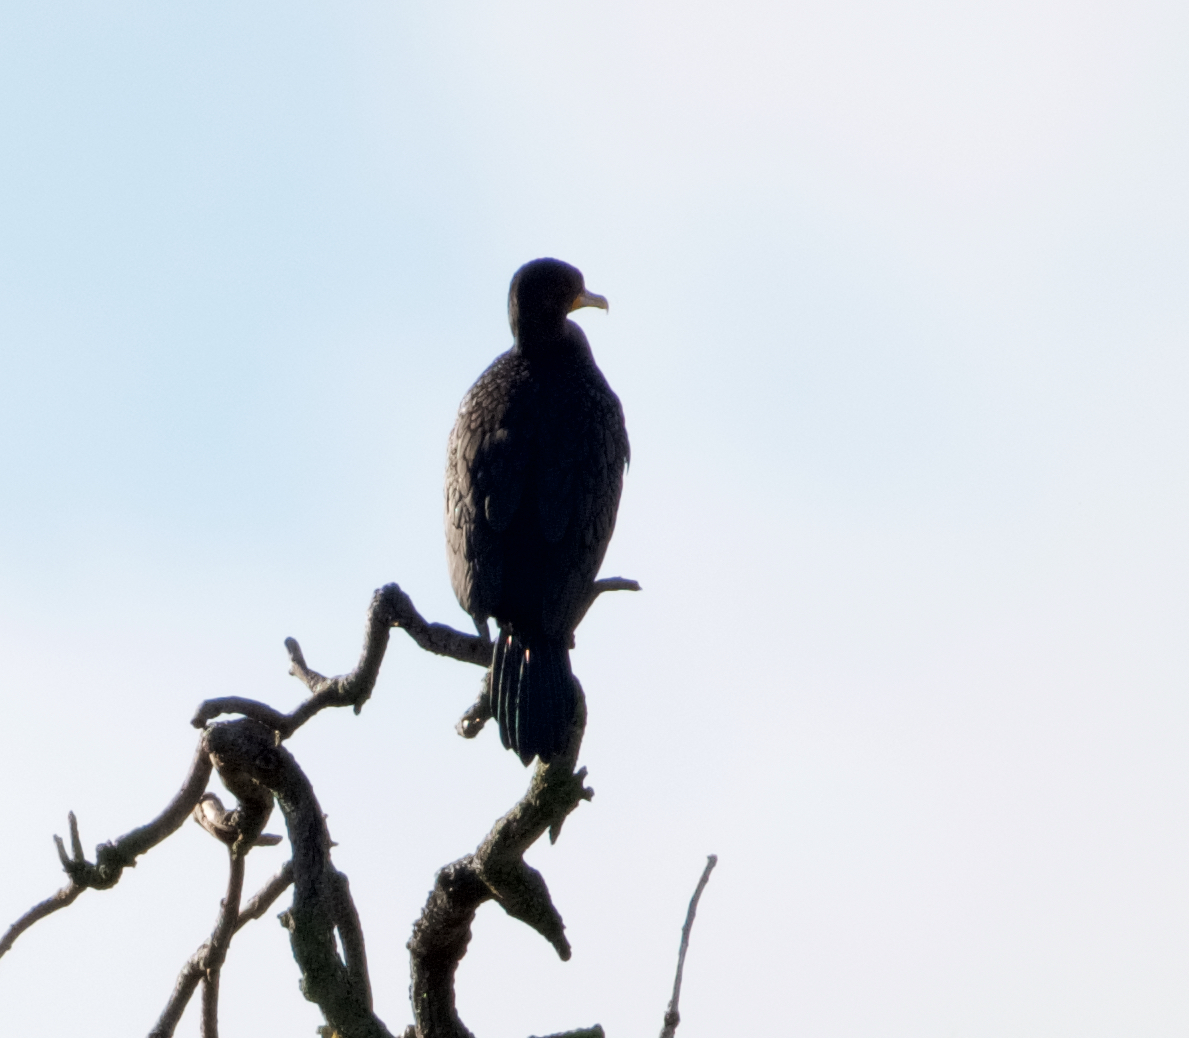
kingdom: Animalia
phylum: Chordata
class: Aves
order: Suliformes
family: Phalacrocoracidae
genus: Phalacrocorax
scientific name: Phalacrocorax auritus
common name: Double-crested cormorant
